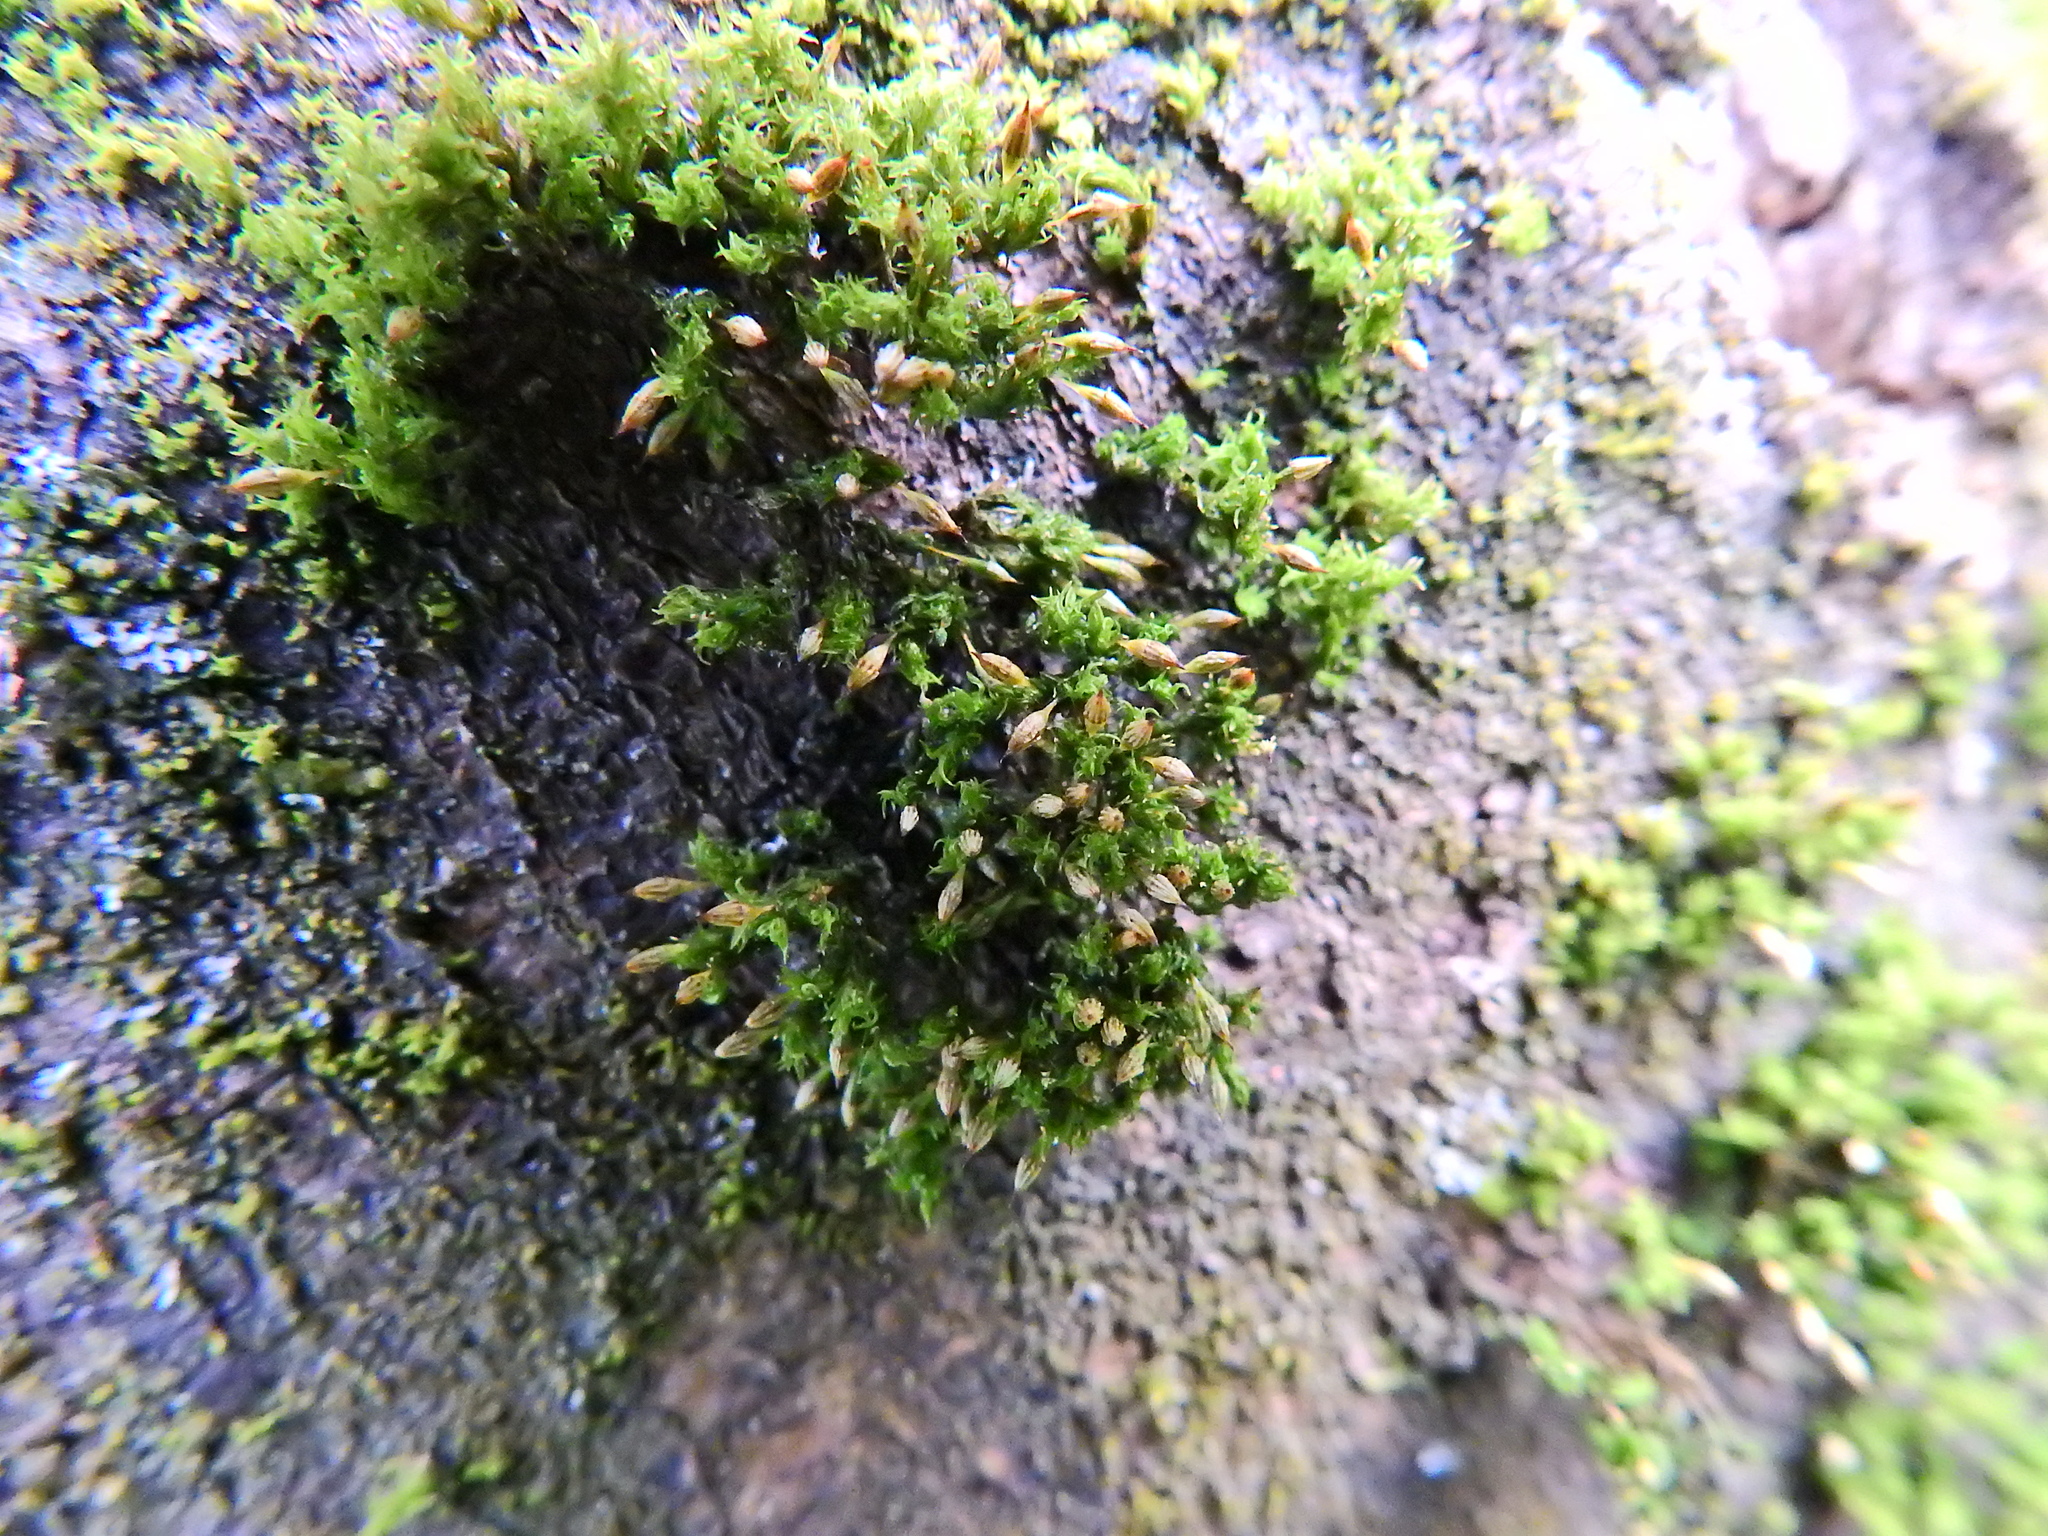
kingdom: Plantae
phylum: Bryophyta
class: Bryopsida
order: Orthotrichales
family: Orthotrichaceae
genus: Orthotrichum
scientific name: Orthotrichum pulchellum
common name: Elegant bristle-moss
